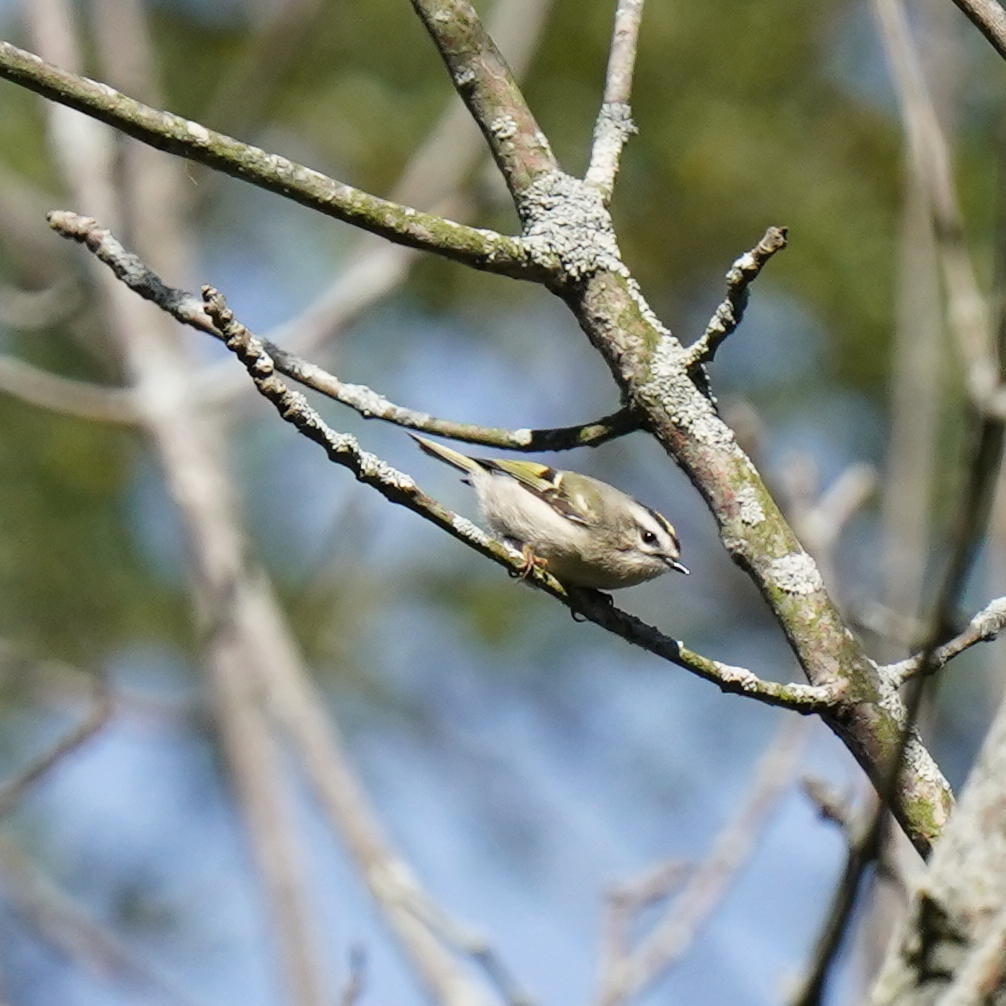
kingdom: Animalia
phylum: Chordata
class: Aves
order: Passeriformes
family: Regulidae
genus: Regulus
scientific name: Regulus satrapa
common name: Golden-crowned kinglet
